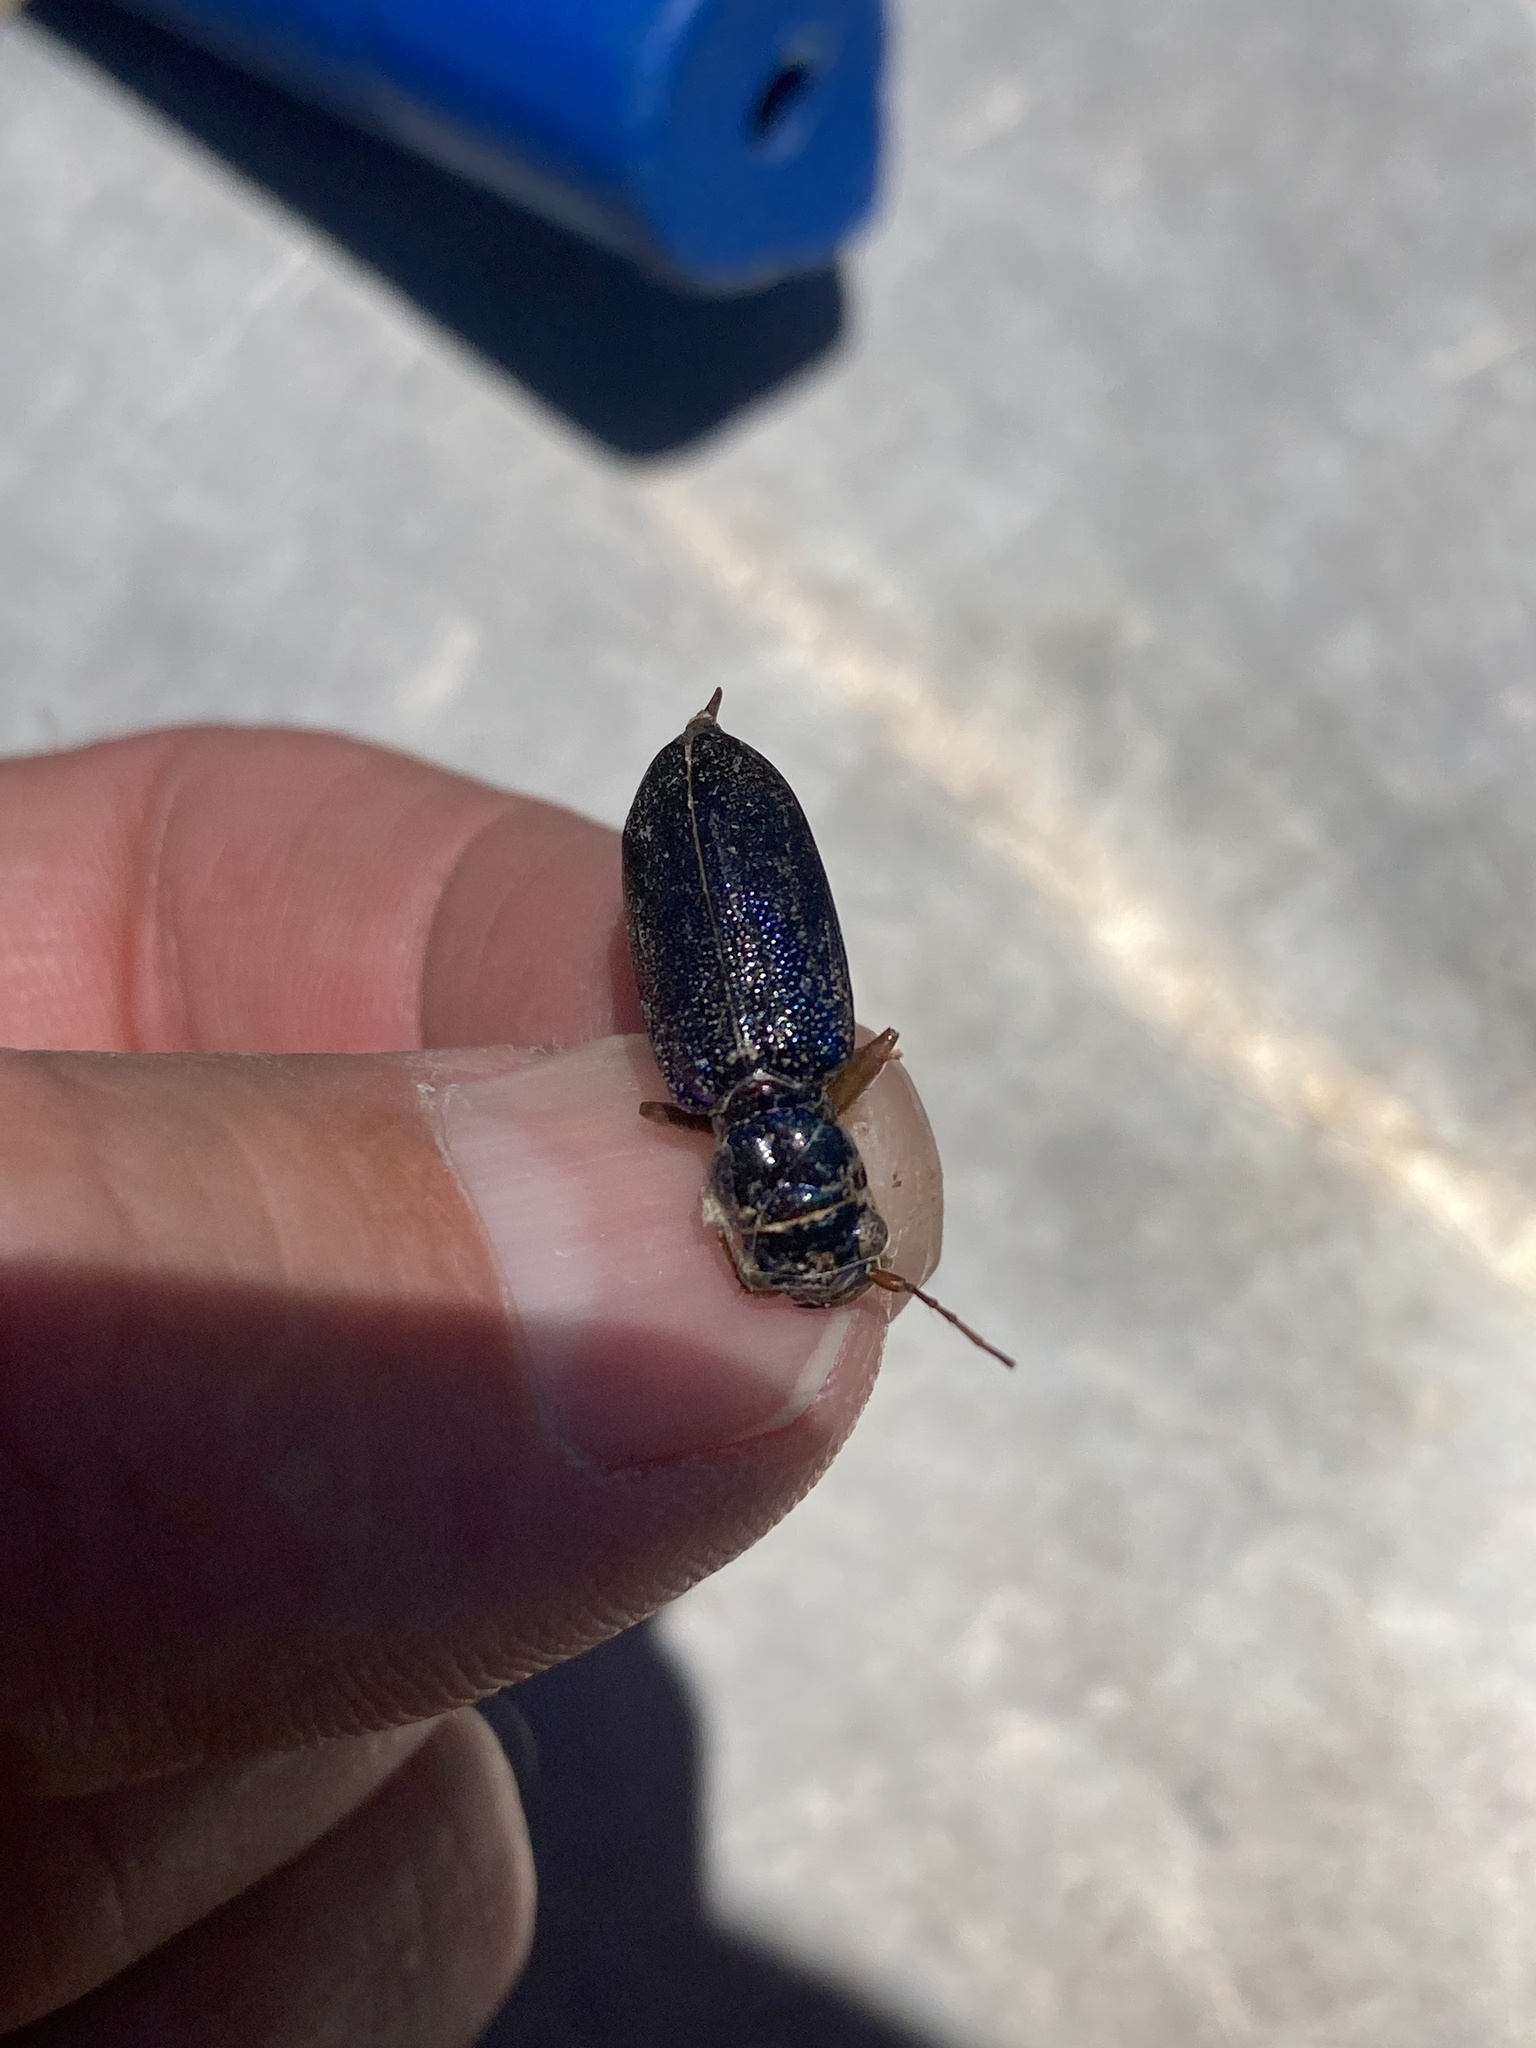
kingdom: Animalia
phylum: Arthropoda
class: Insecta
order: Coleoptera
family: Carabidae
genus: Tetracha
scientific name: Tetracha virginica
